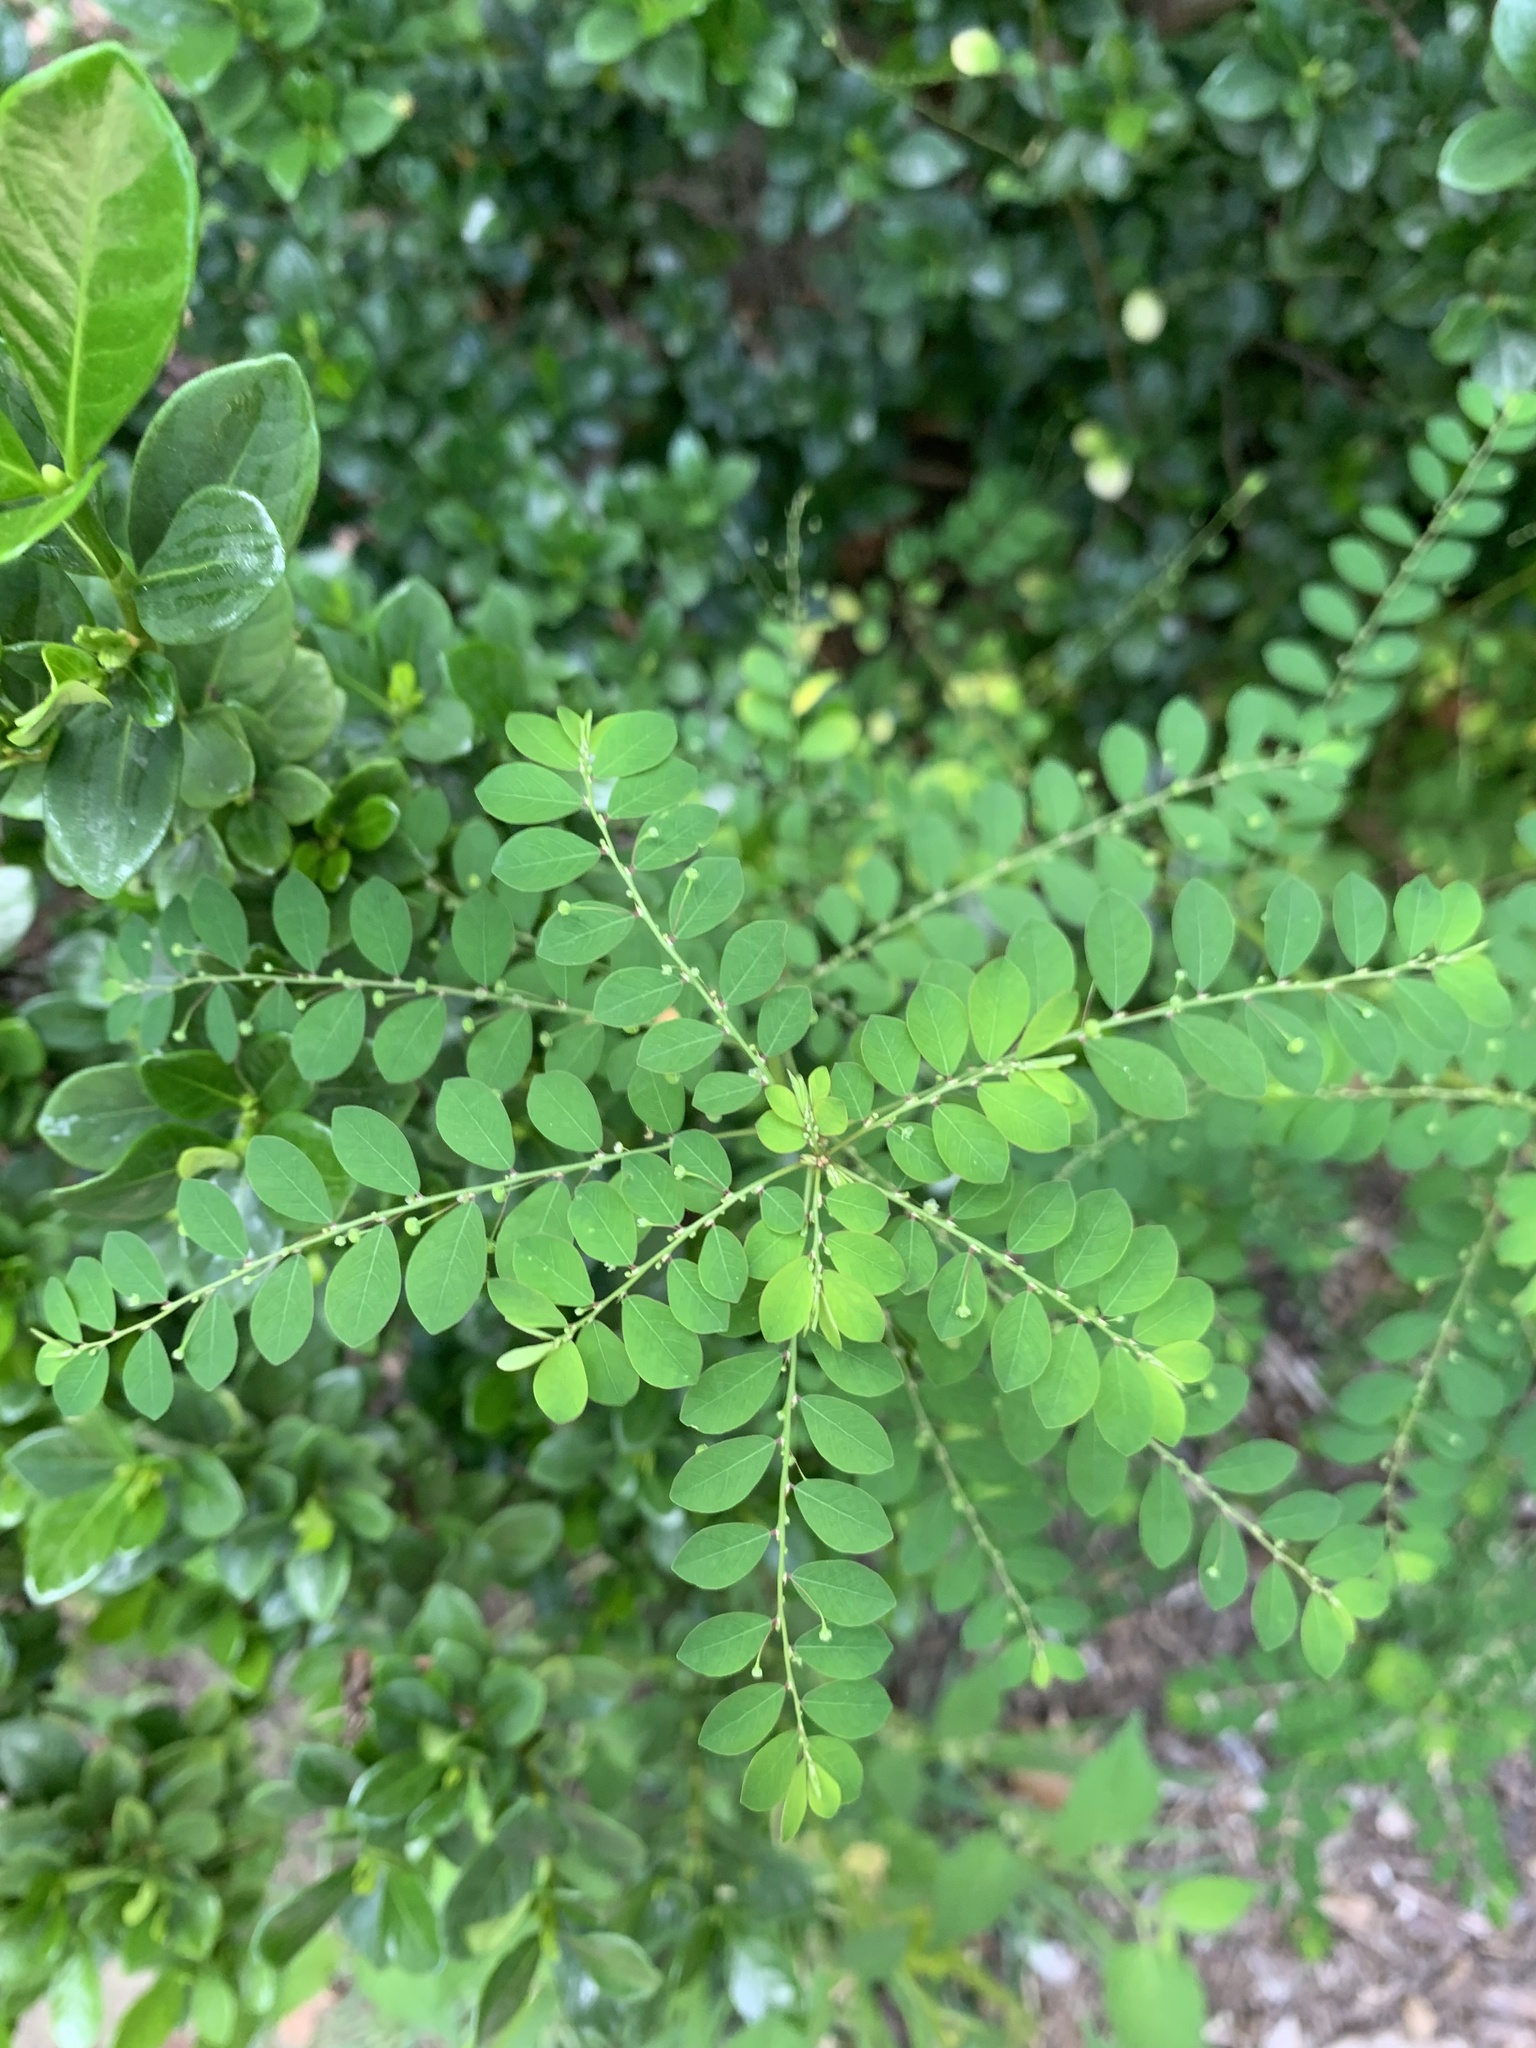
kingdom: Plantae
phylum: Tracheophyta
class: Magnoliopsida
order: Malpighiales
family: Phyllanthaceae
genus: Phyllanthus
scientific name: Phyllanthus tenellus
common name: Mascarene island leaf-flower
